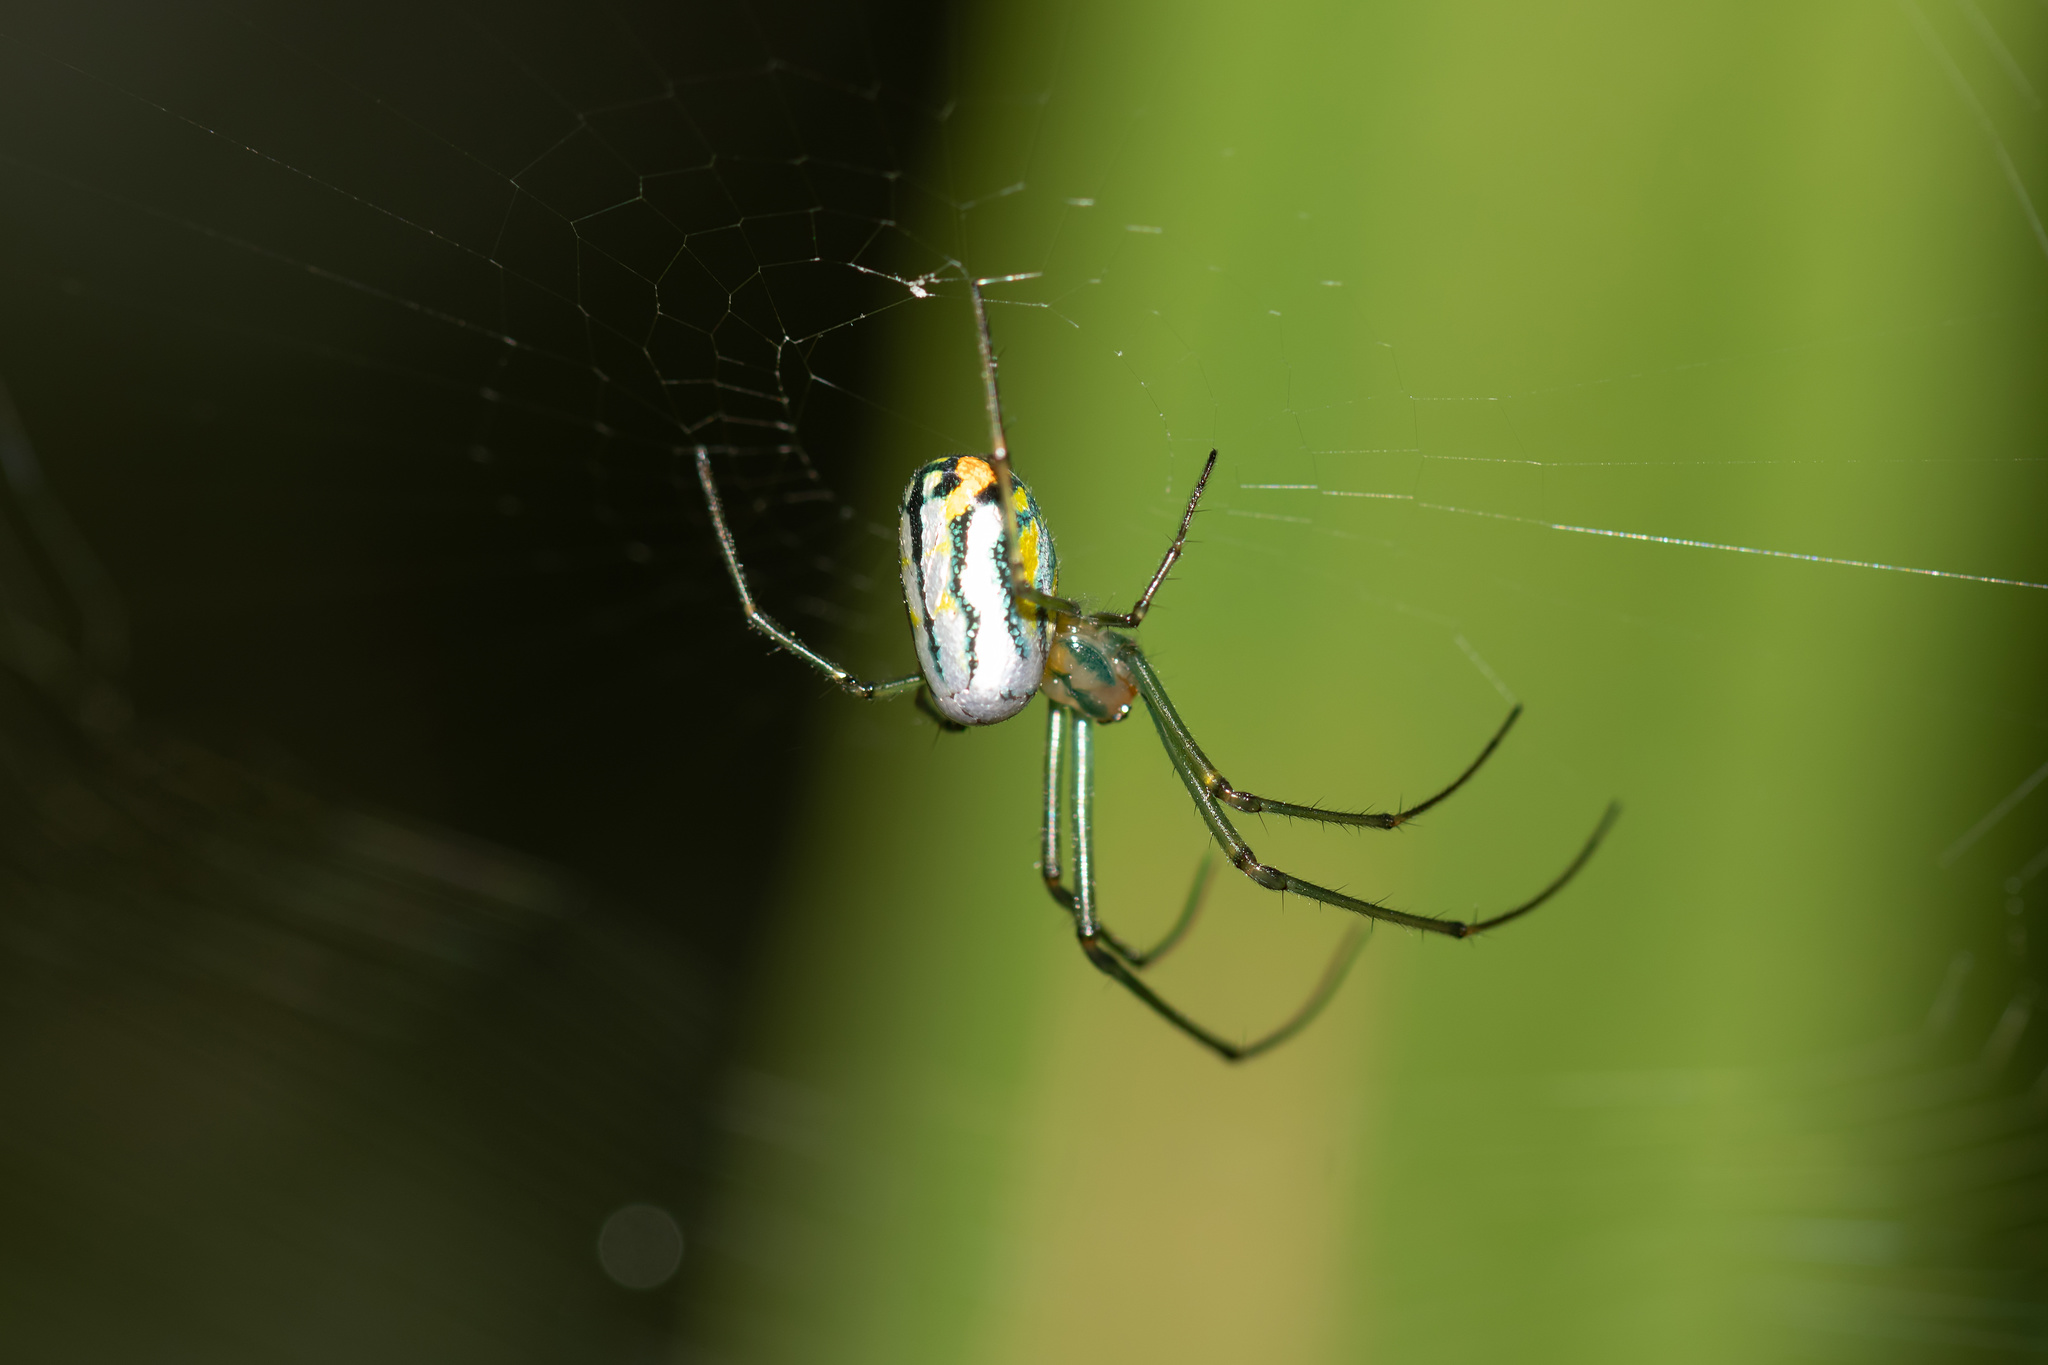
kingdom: Animalia
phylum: Arthropoda
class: Arachnida
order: Araneae
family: Tetragnathidae
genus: Leucauge
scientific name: Leucauge argyrobapta
